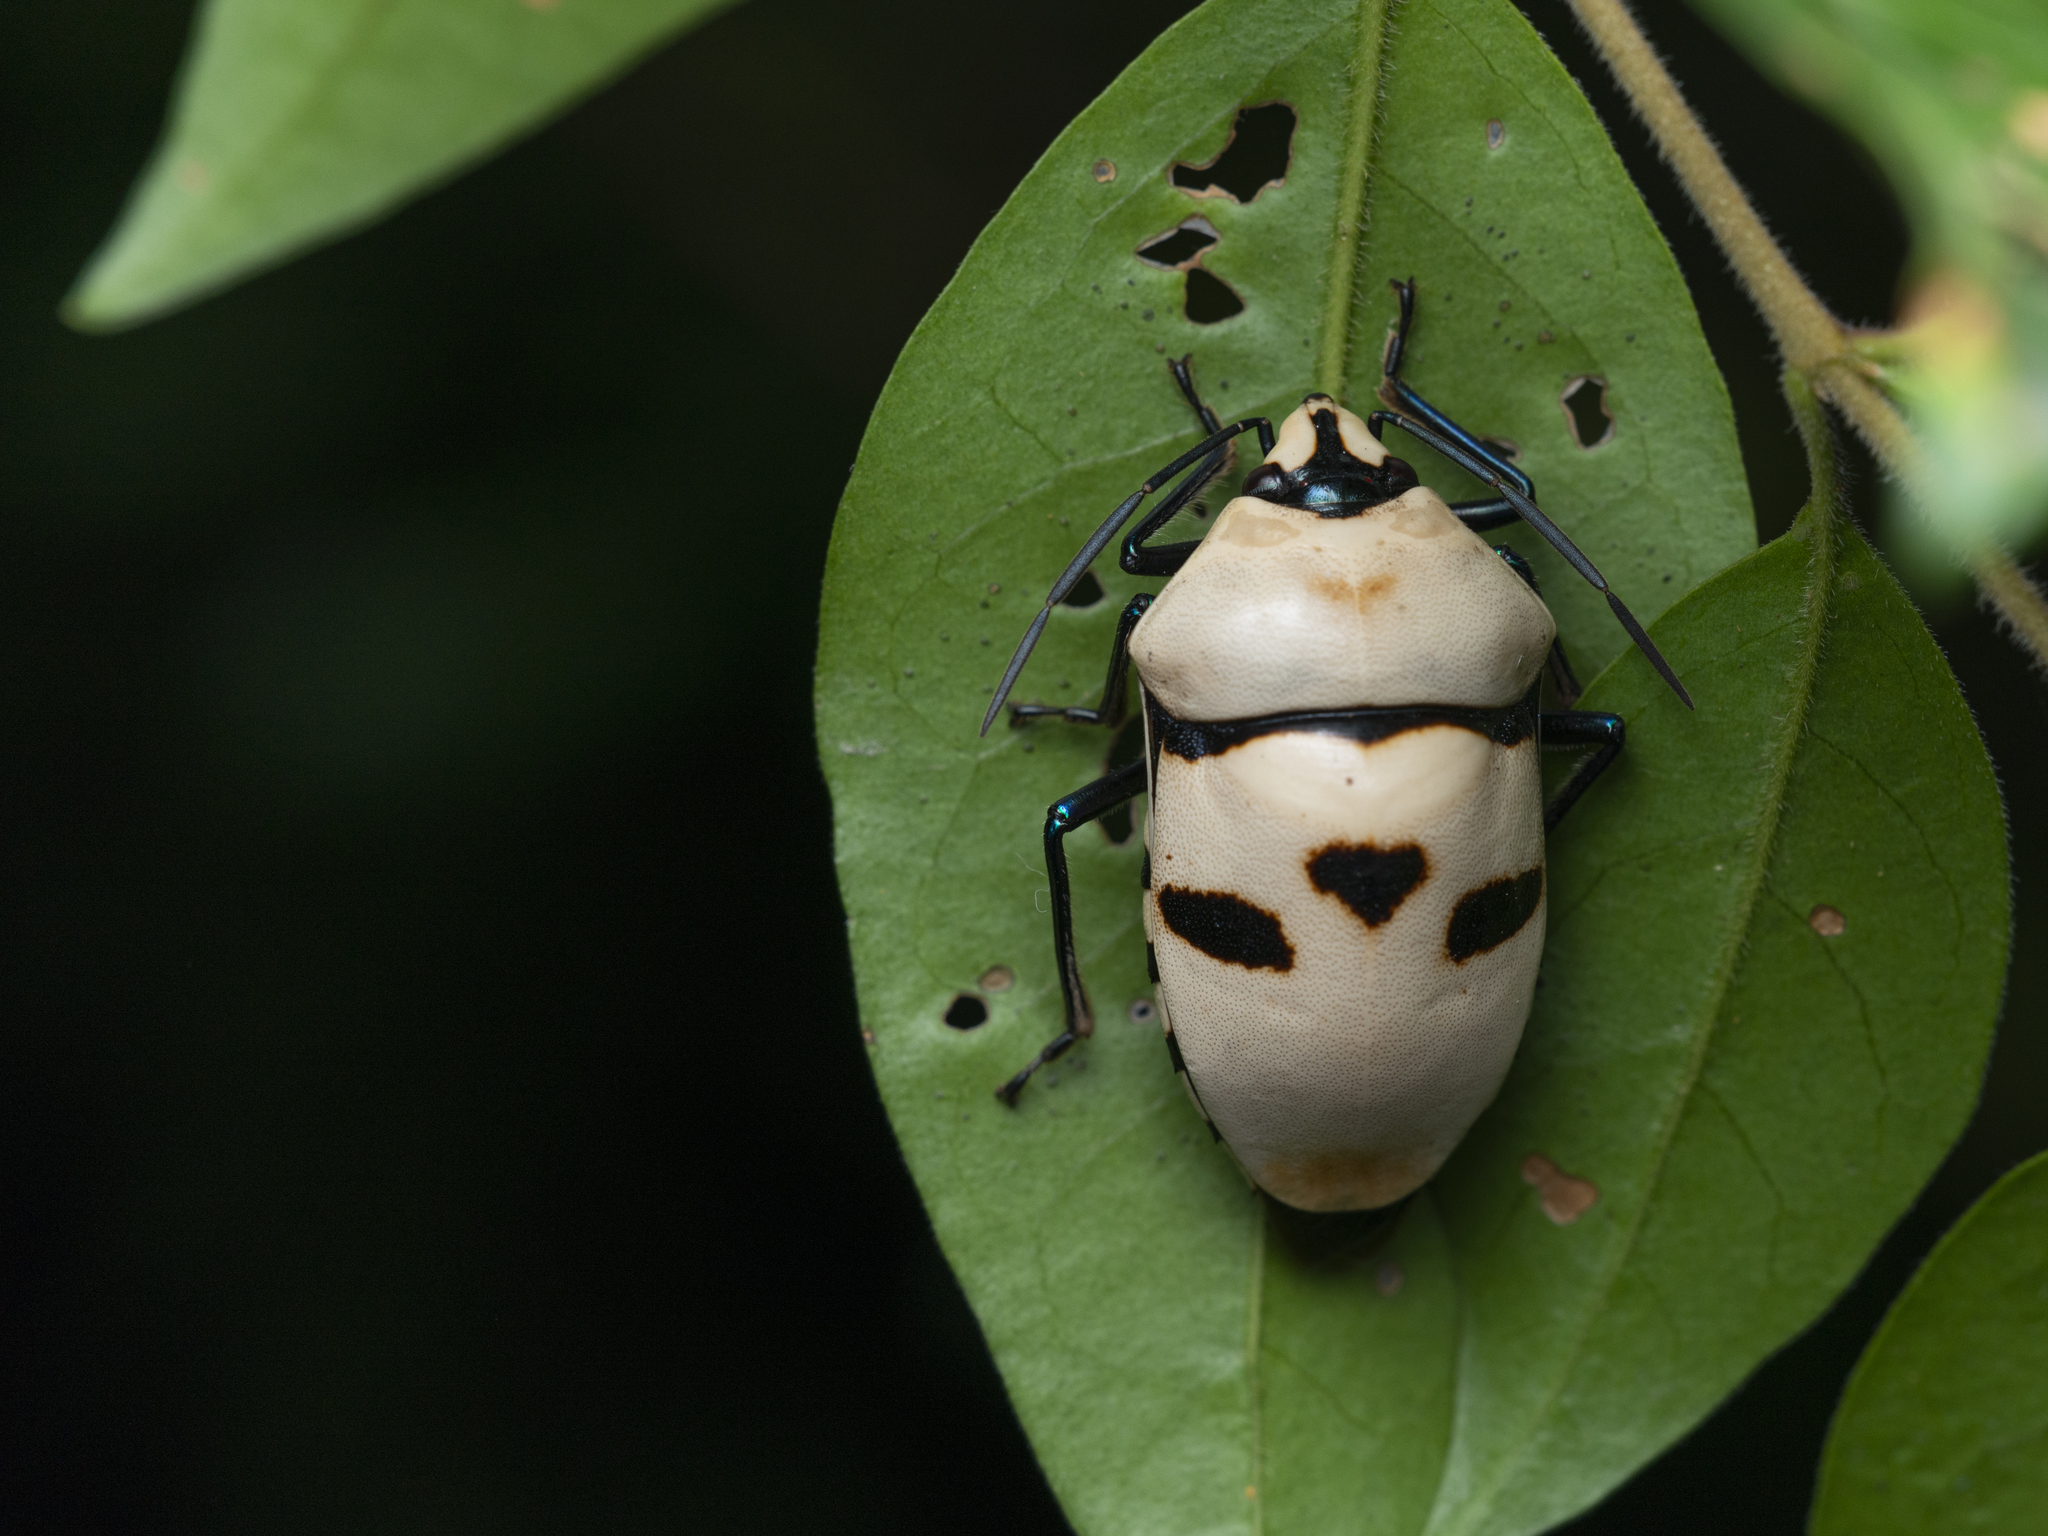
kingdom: Animalia
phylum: Arthropoda
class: Insecta
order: Hemiptera
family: Scutelleridae
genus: Eucorysses
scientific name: Eucorysses grandis
